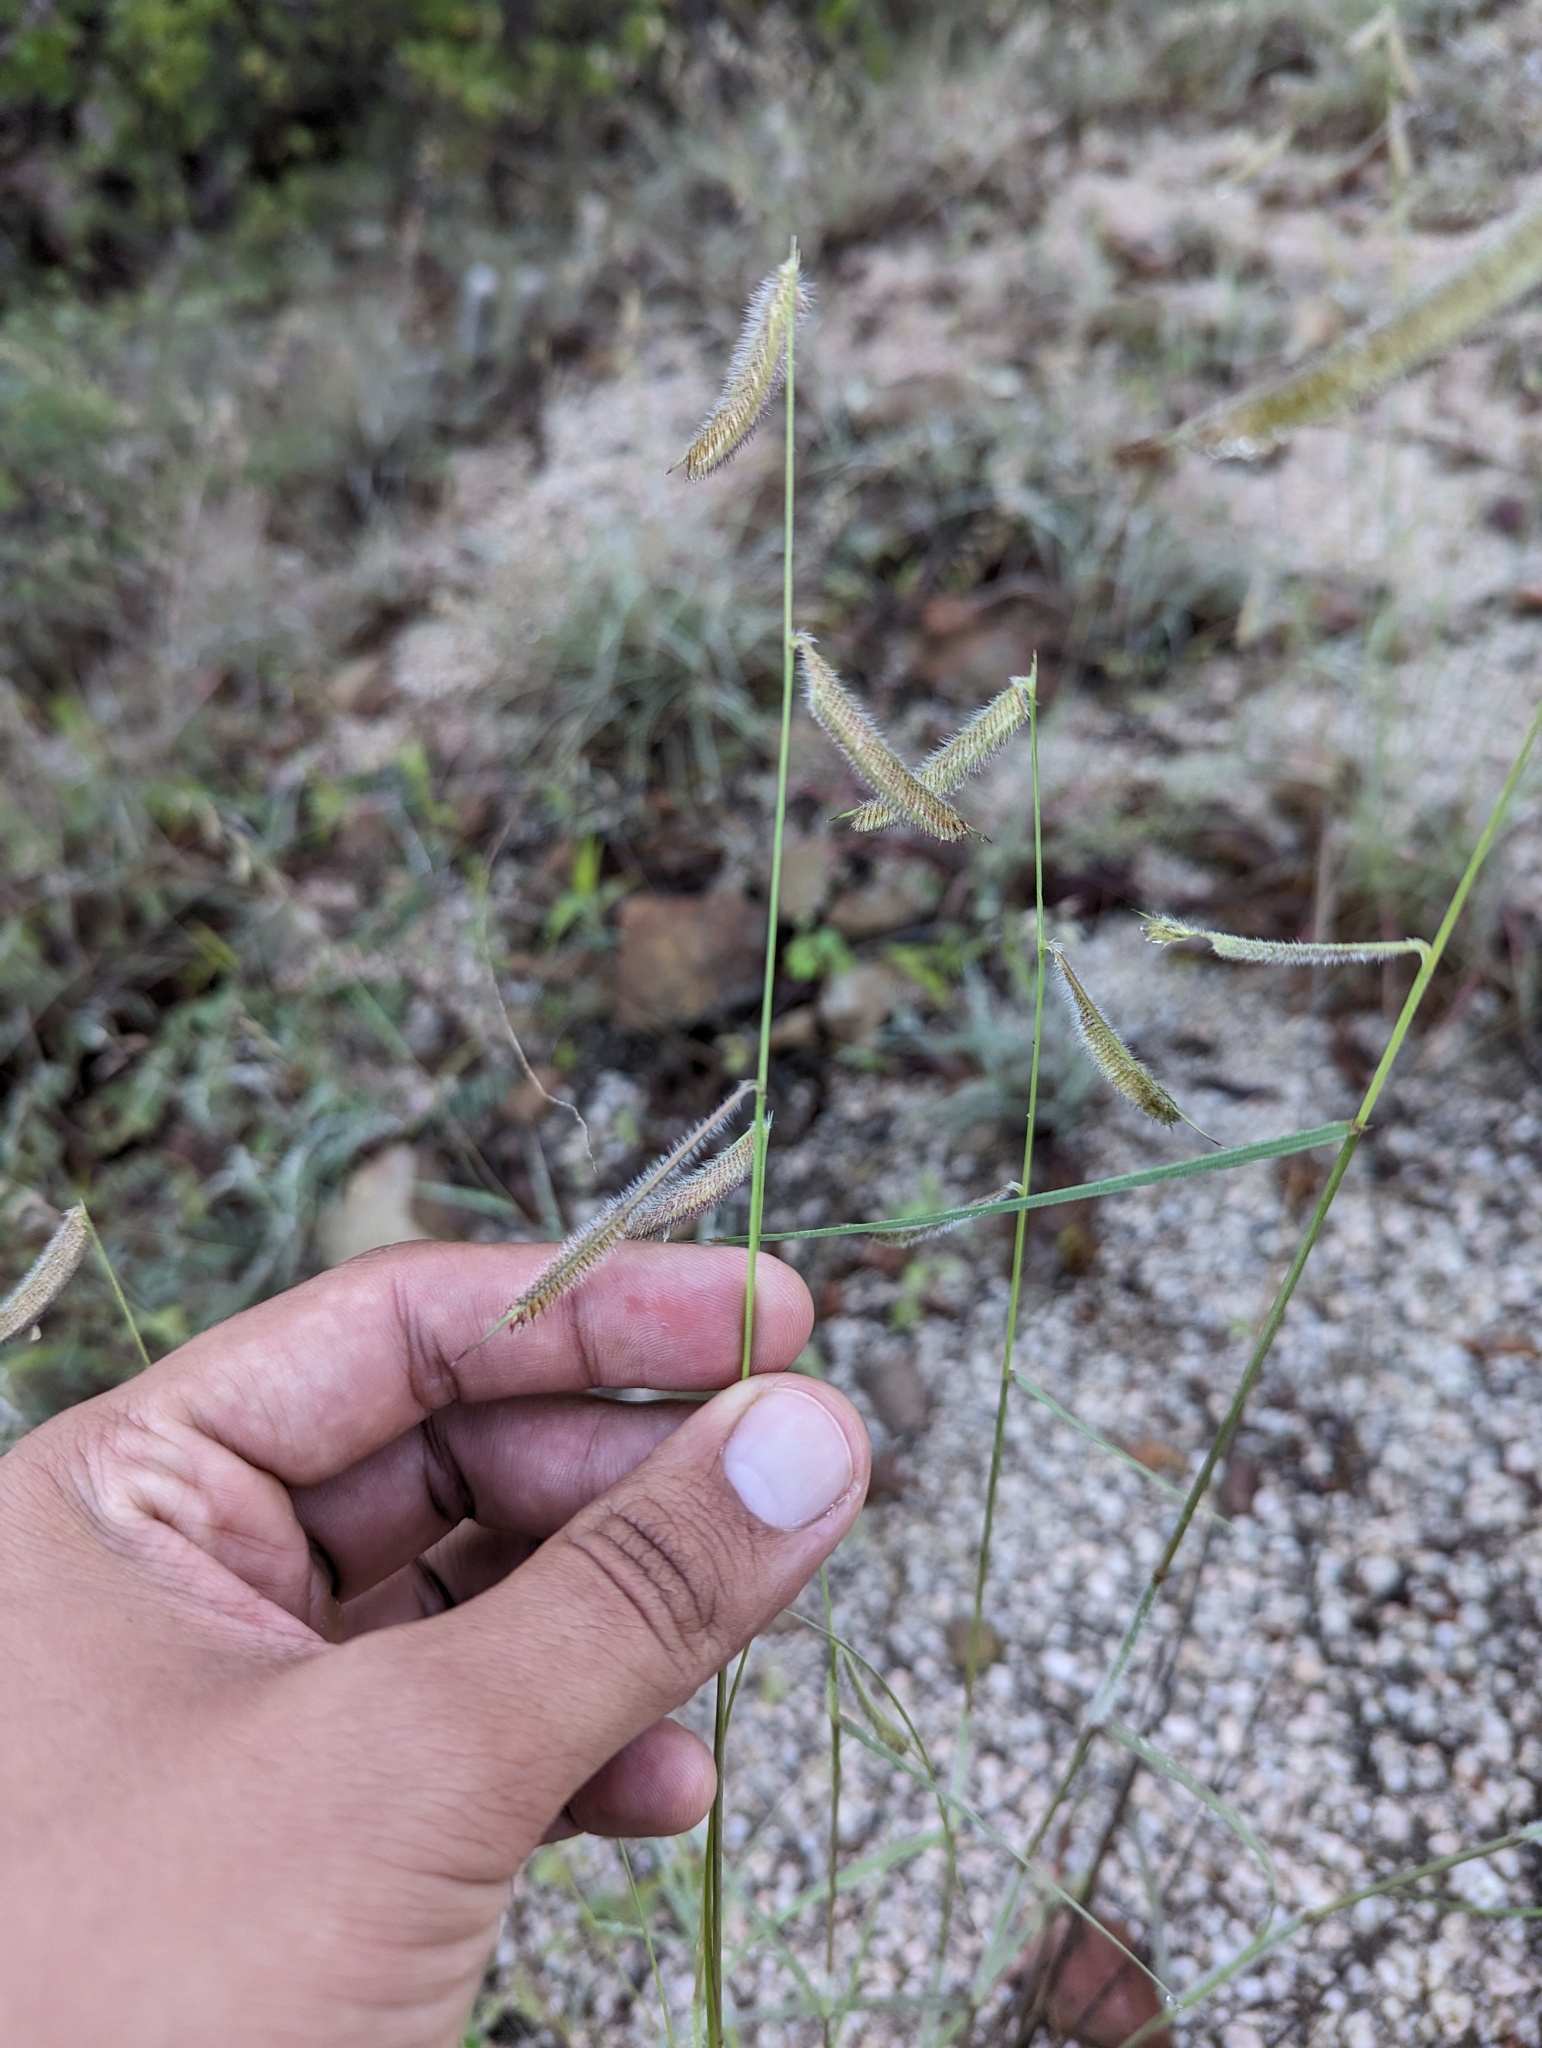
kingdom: Plantae
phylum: Tracheophyta
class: Liliopsida
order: Poales
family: Poaceae
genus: Bouteloua
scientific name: Bouteloua hirsuta
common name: Hairy grama
